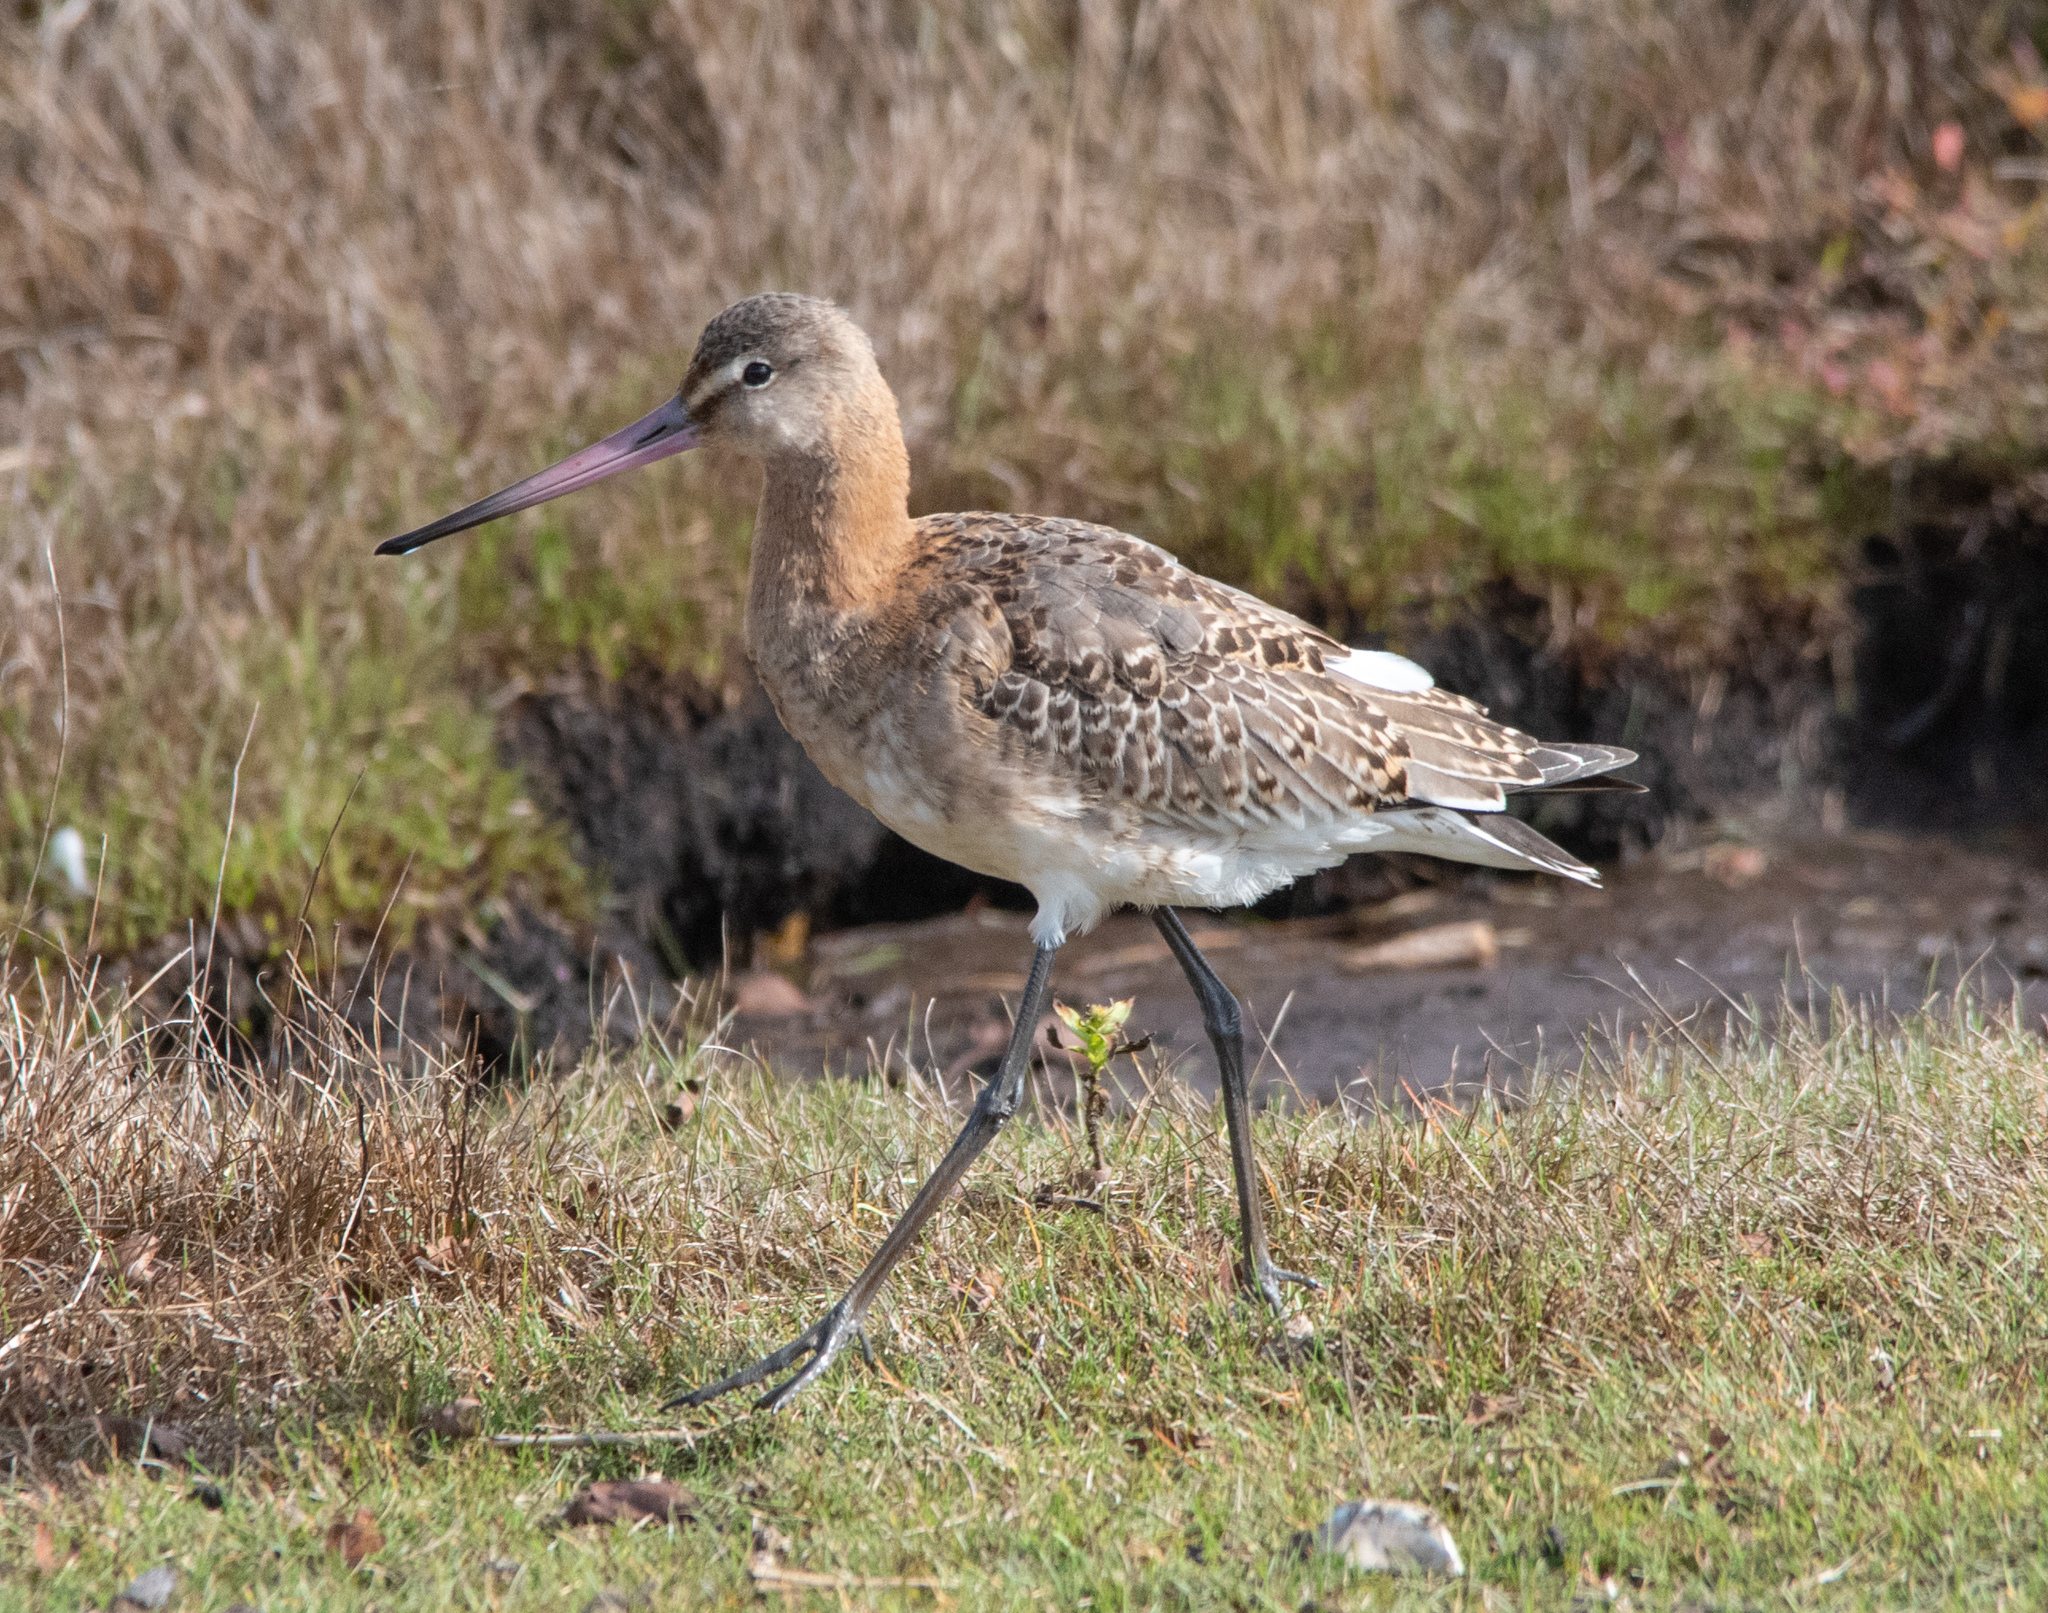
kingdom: Animalia
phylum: Chordata
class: Aves
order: Charadriiformes
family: Scolopacidae
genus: Limosa
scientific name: Limosa limosa
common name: Black-tailed godwit
